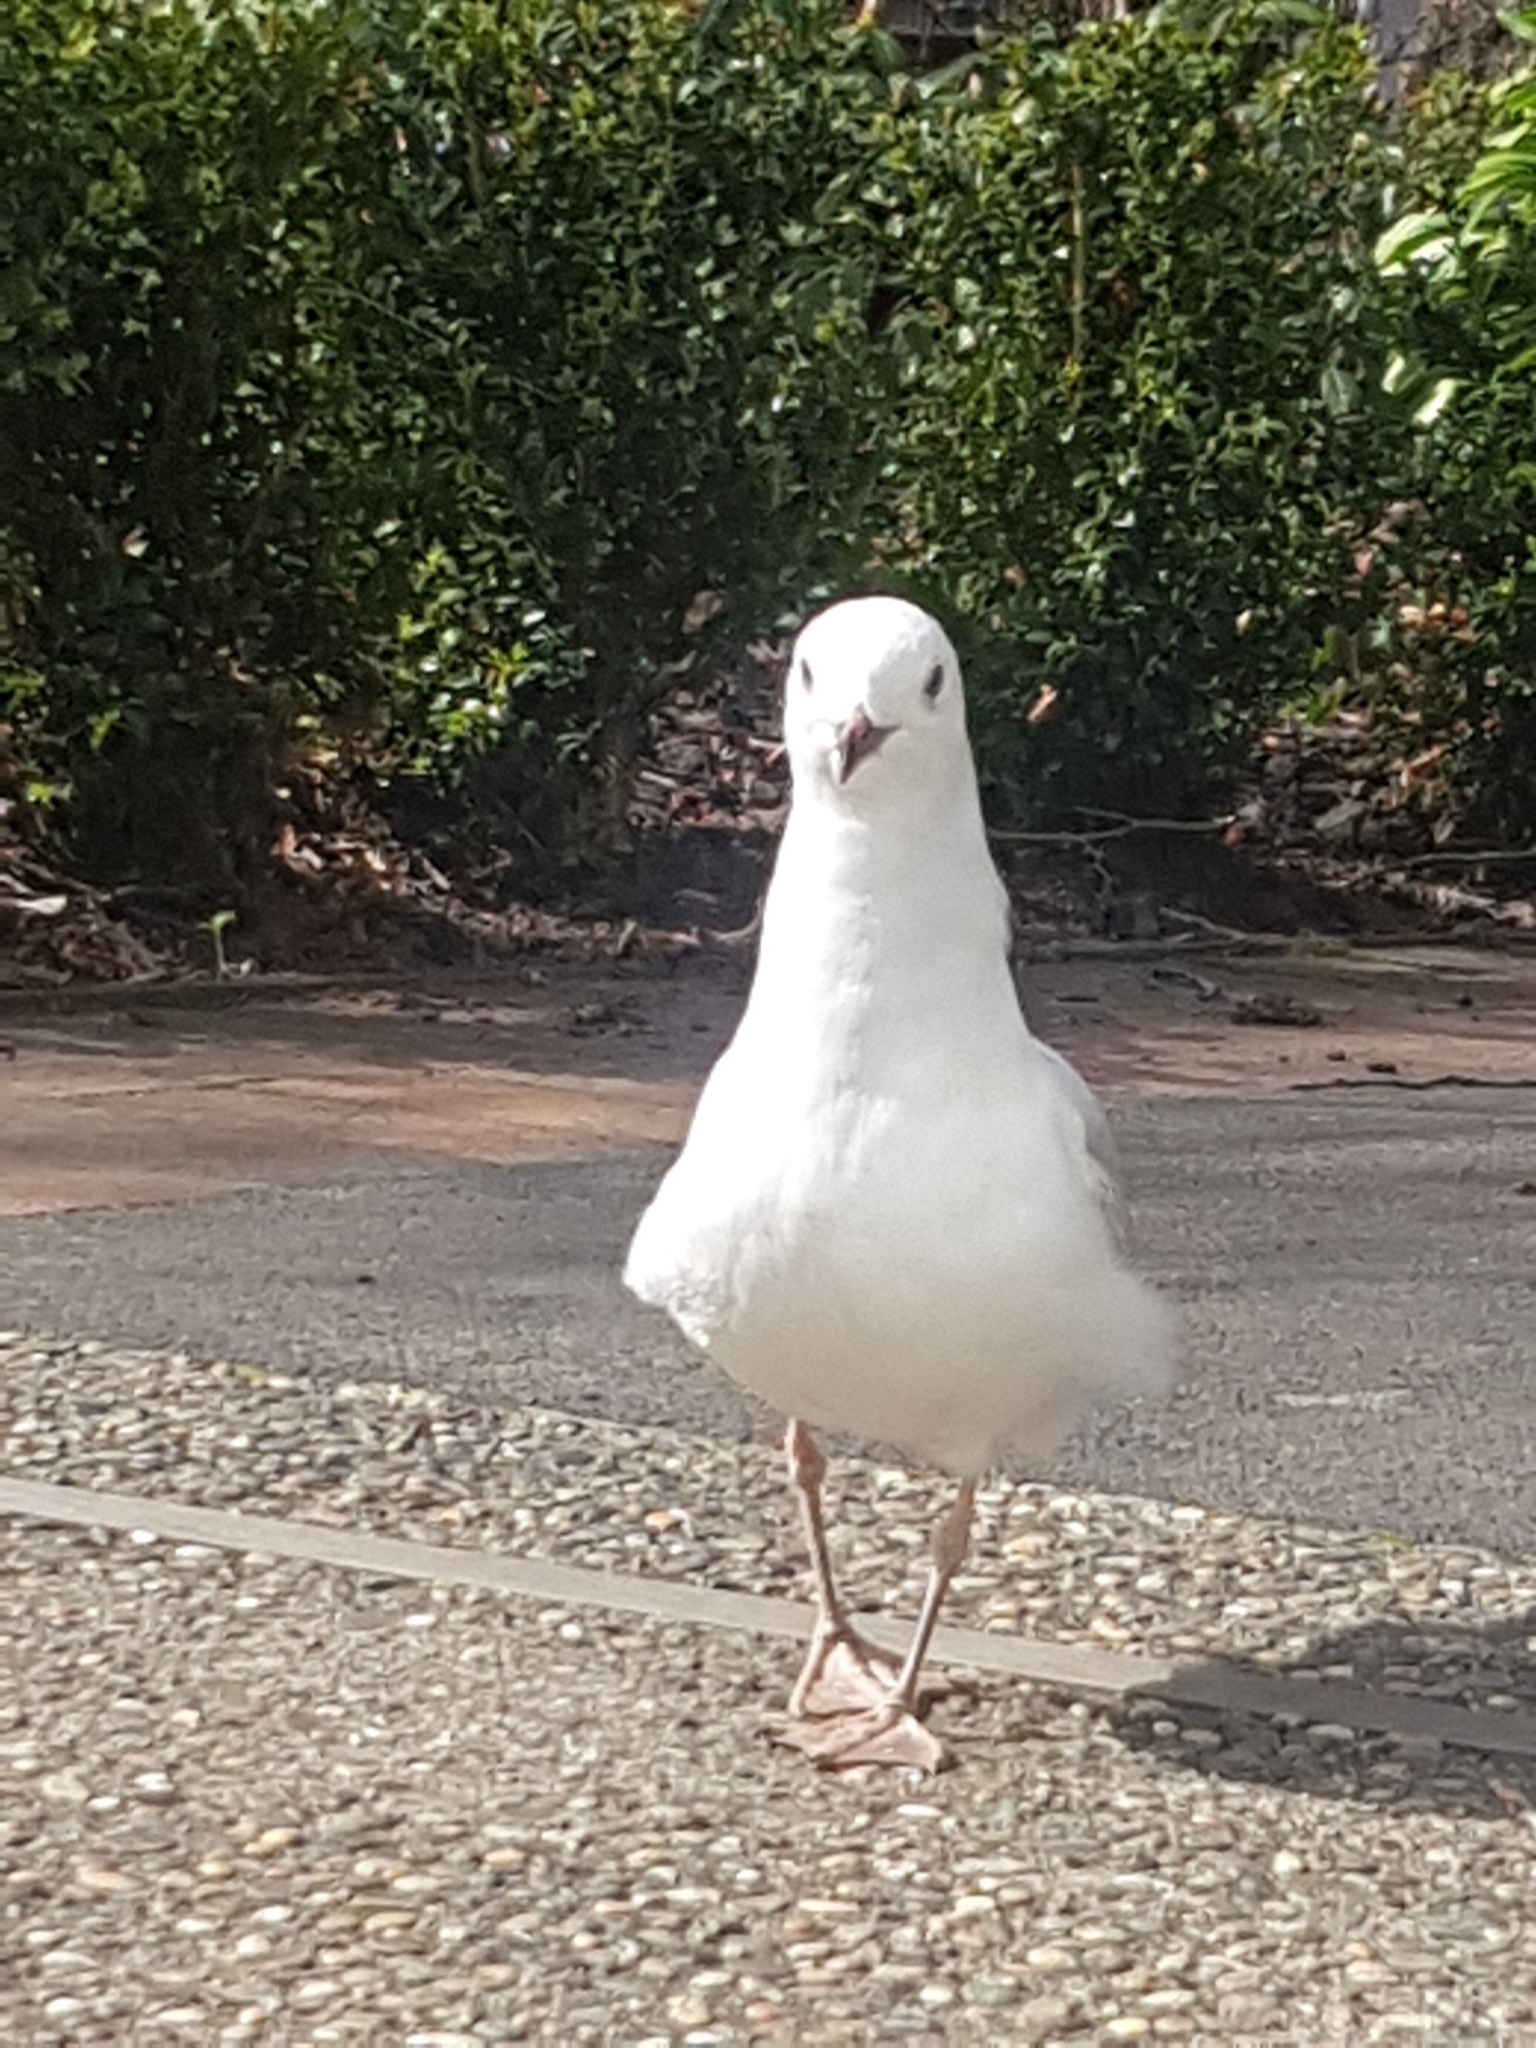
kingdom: Animalia
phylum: Chordata
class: Aves
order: Charadriiformes
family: Laridae
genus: Chroicocephalus
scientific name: Chroicocephalus novaehollandiae
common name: Silver gull
